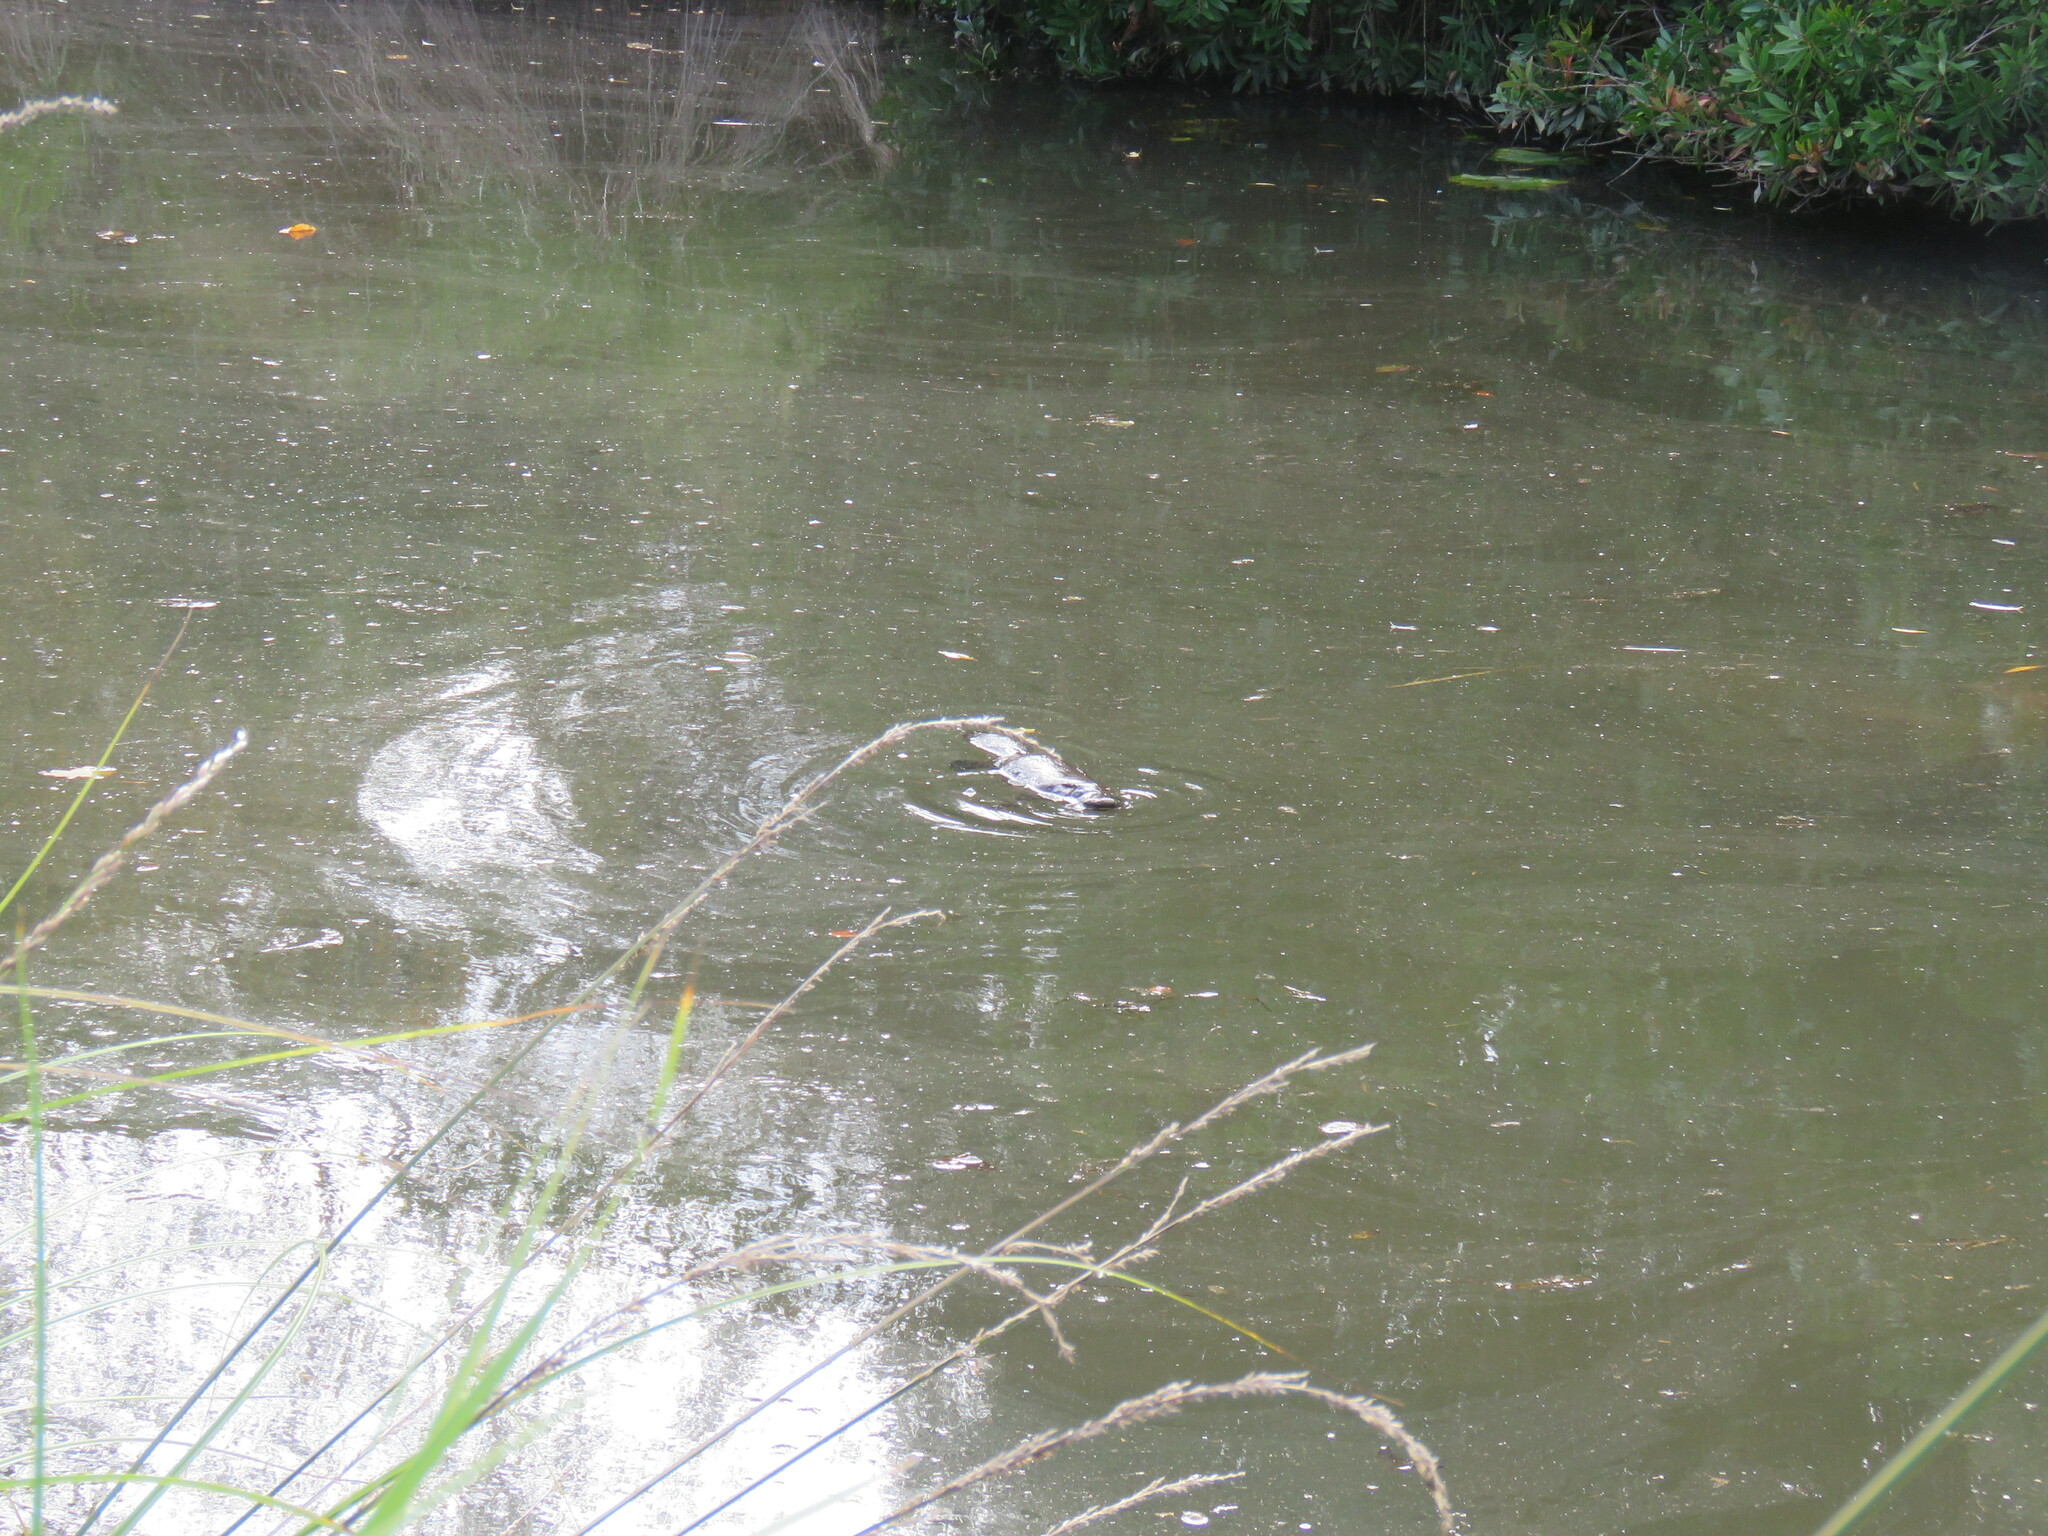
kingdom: Animalia
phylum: Chordata
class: Mammalia
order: Monotremata
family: Ornithorhynchidae
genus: Ornithorhynchus
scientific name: Ornithorhynchus anatinus
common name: Platypus
